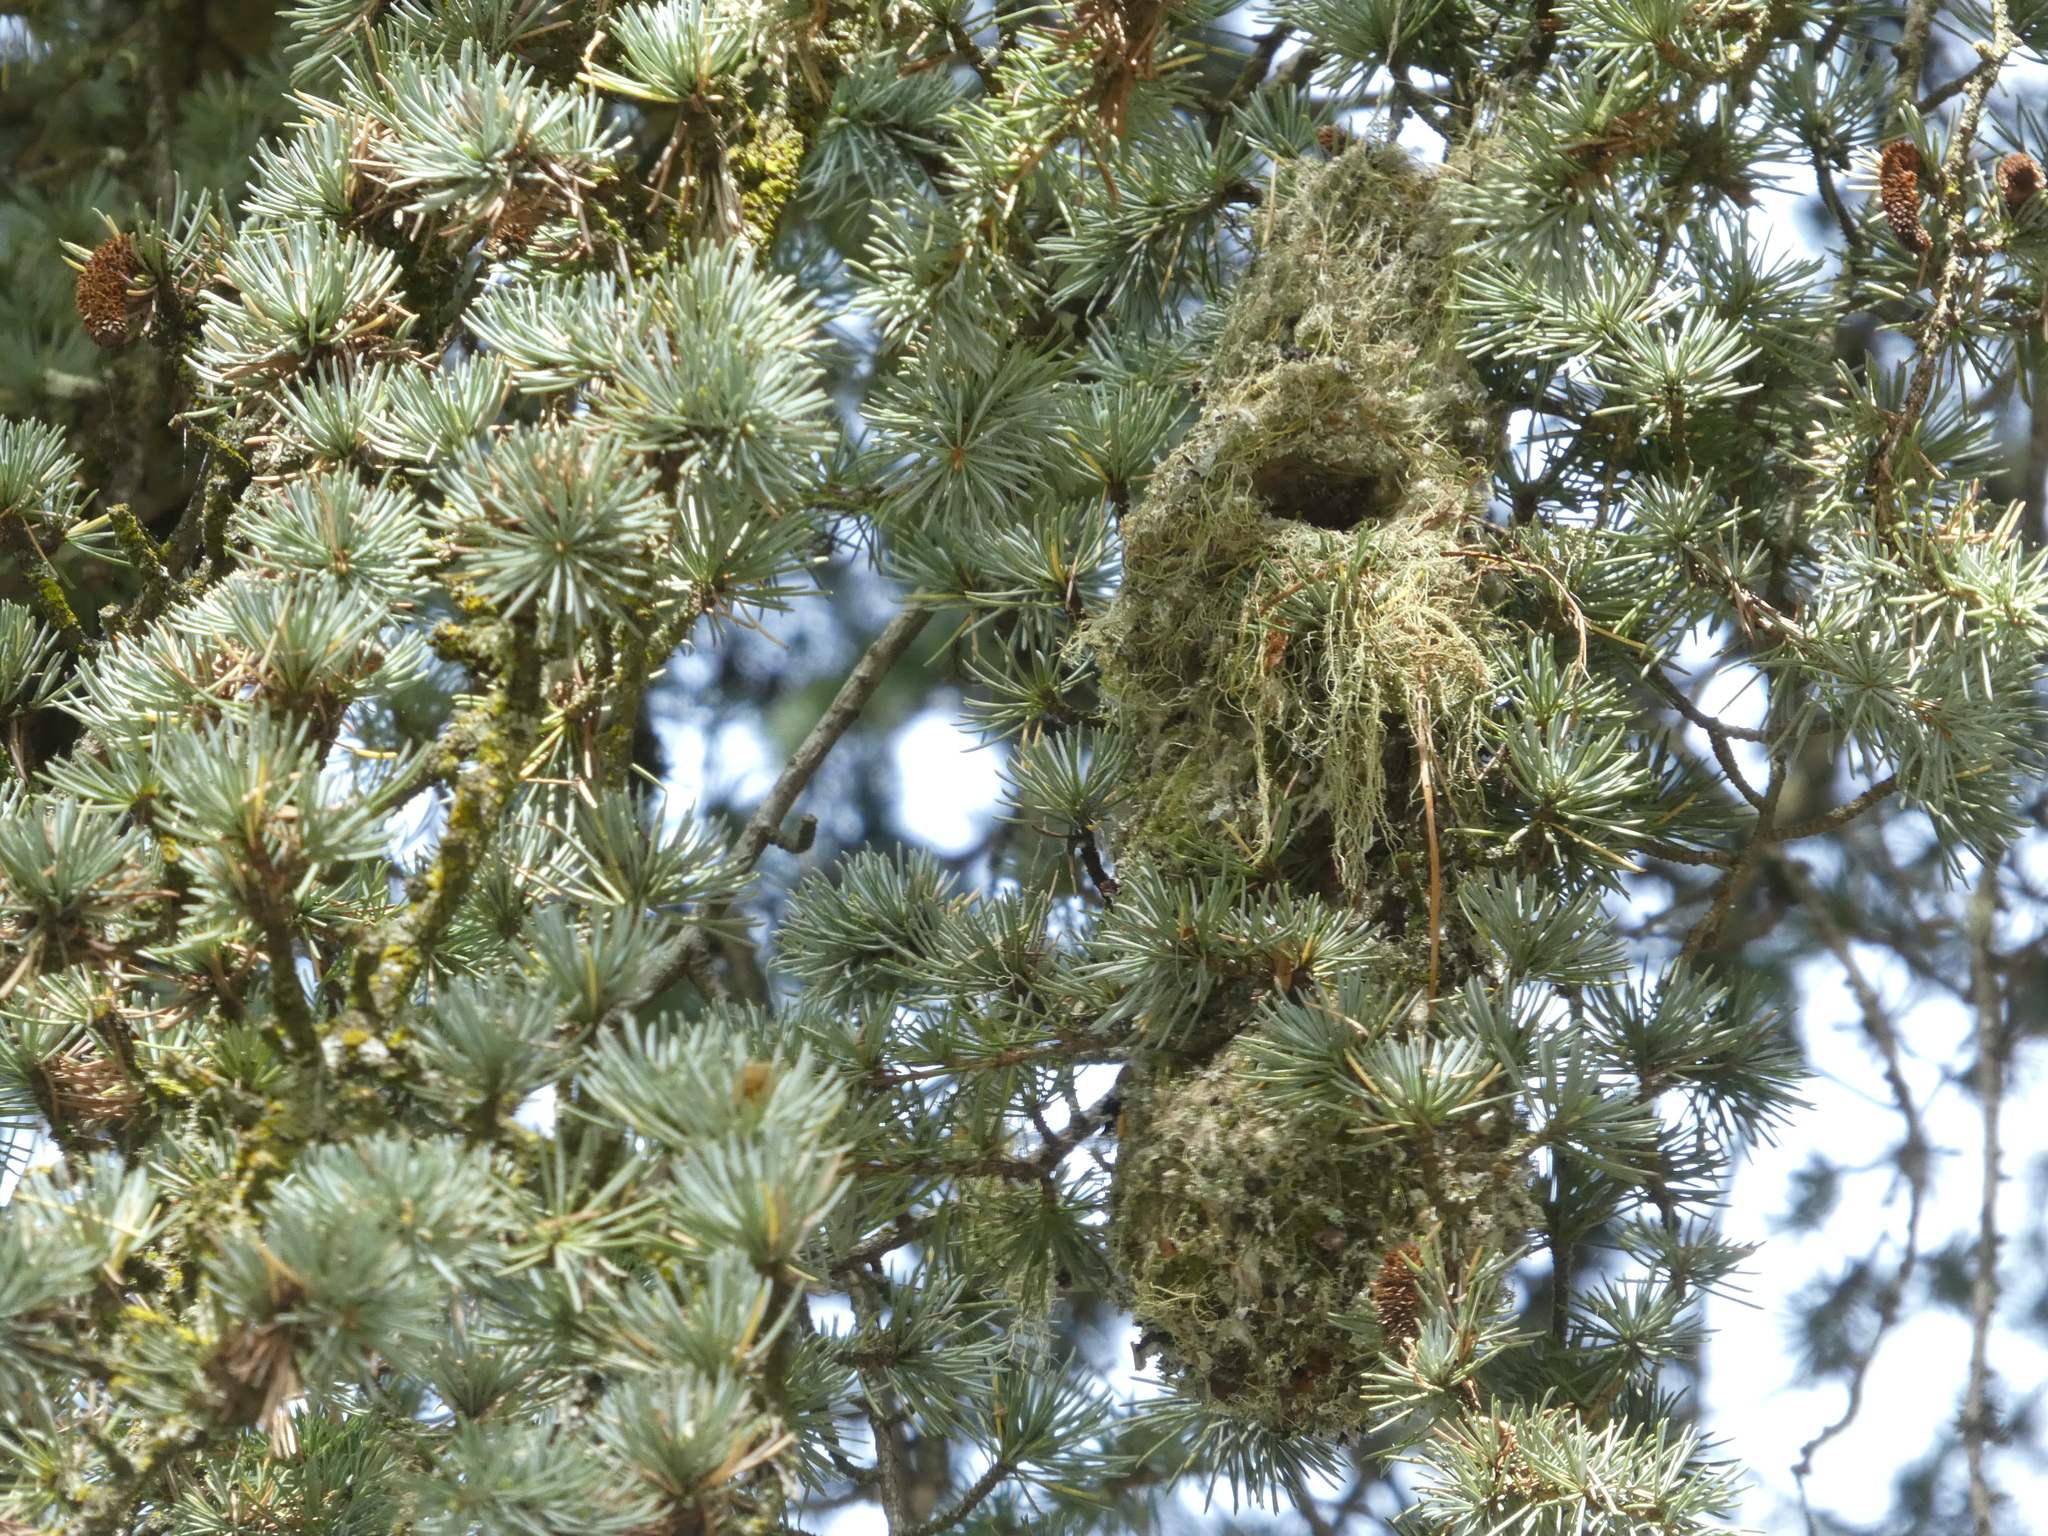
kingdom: Animalia
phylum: Chordata
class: Aves
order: Passeriformes
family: Aegithalidae
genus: Psaltriparus
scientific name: Psaltriparus minimus
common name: American bushtit
